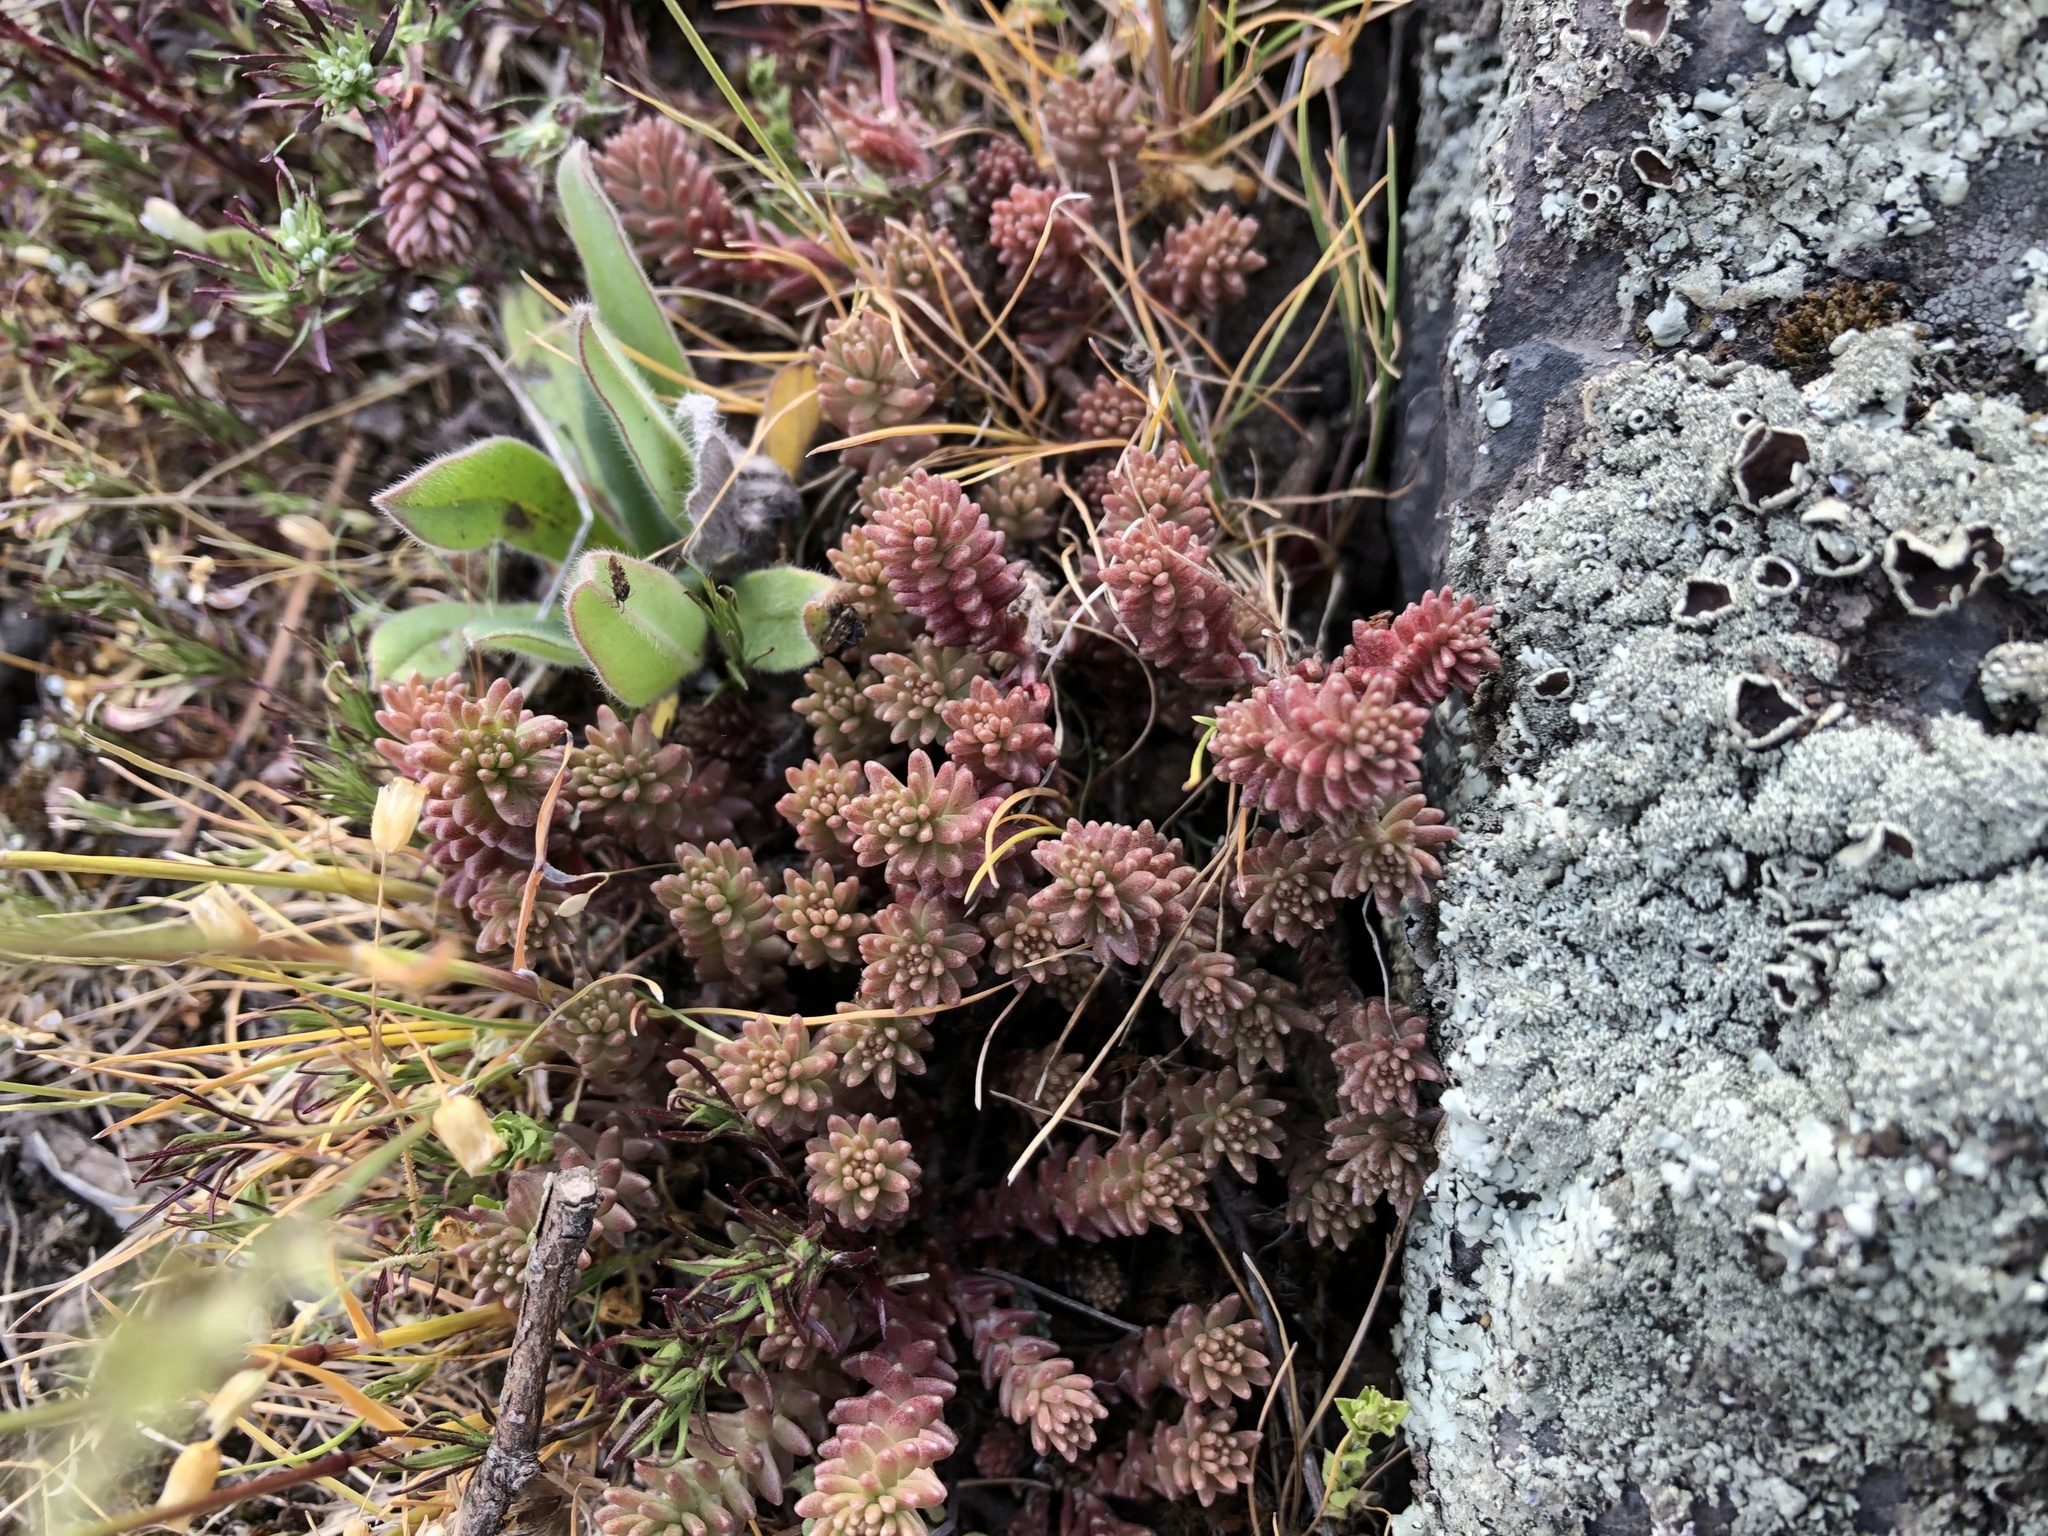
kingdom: Plantae
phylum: Tracheophyta
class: Magnoliopsida
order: Saxifragales
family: Crassulaceae
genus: Sedum
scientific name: Sedum sexangulare
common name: Tasteless stonecrop
